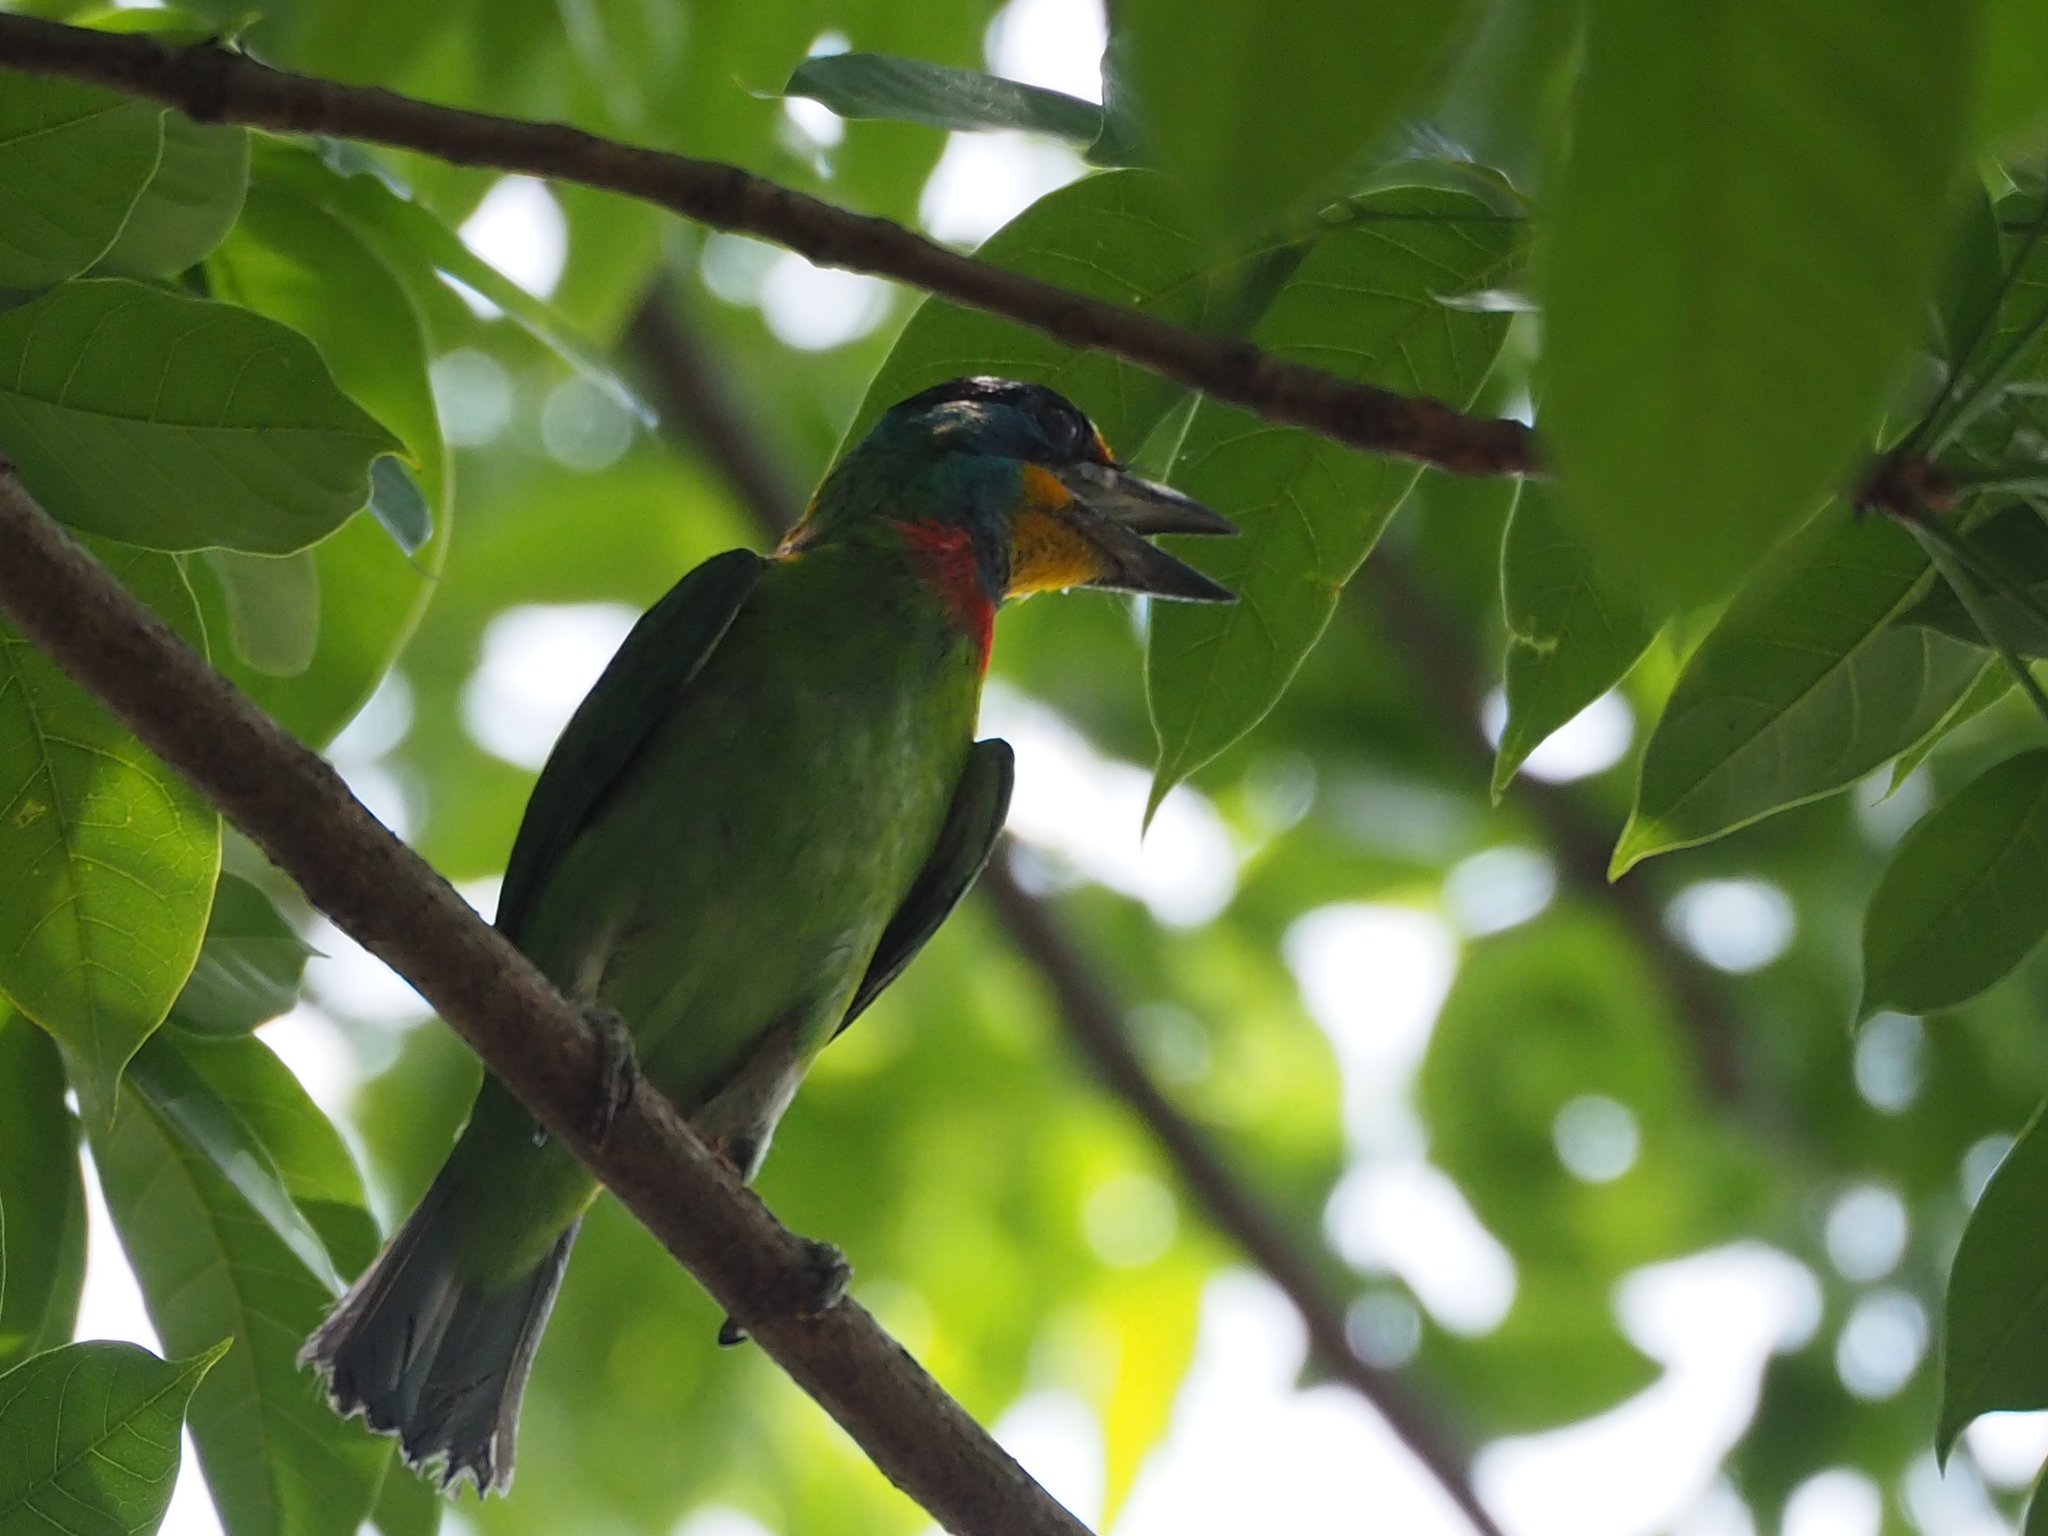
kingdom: Animalia
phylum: Chordata
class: Aves
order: Piciformes
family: Megalaimidae
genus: Psilopogon
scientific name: Psilopogon nuchalis
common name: Taiwan barbet
